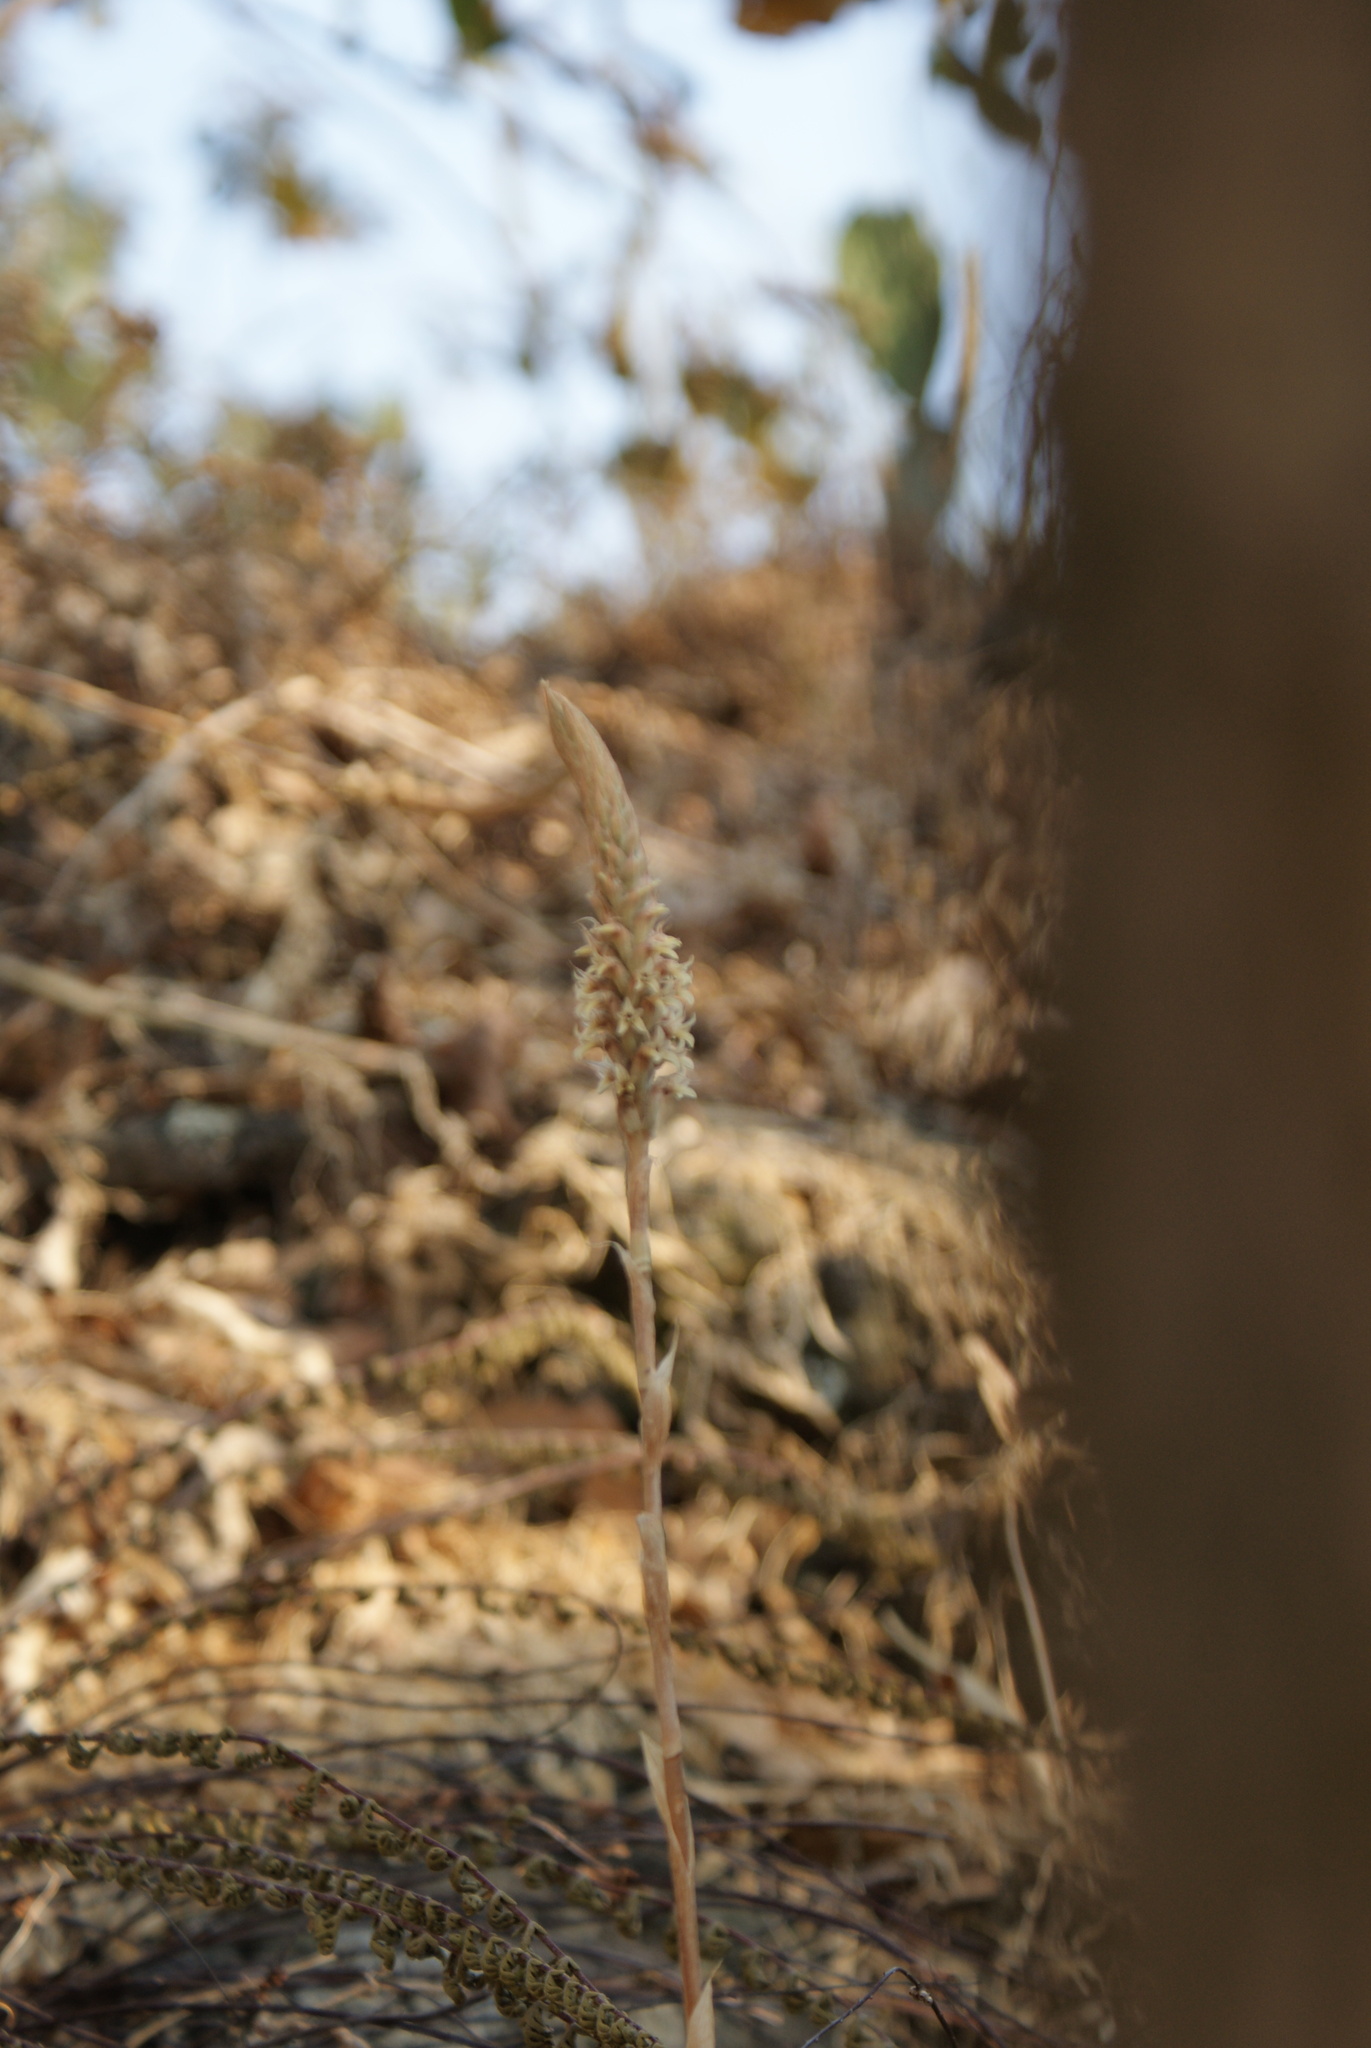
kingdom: Plantae
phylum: Tracheophyta
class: Liliopsida
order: Asparagales
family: Orchidaceae
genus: Aulosepalum
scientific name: Aulosepalum pyramidale
